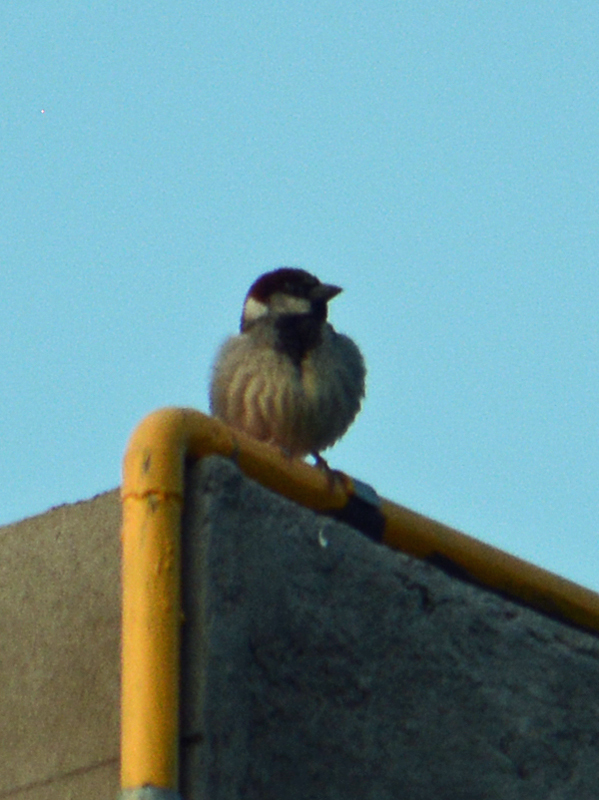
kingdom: Animalia
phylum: Chordata
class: Aves
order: Passeriformes
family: Passeridae
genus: Passer
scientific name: Passer domesticus
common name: House sparrow
